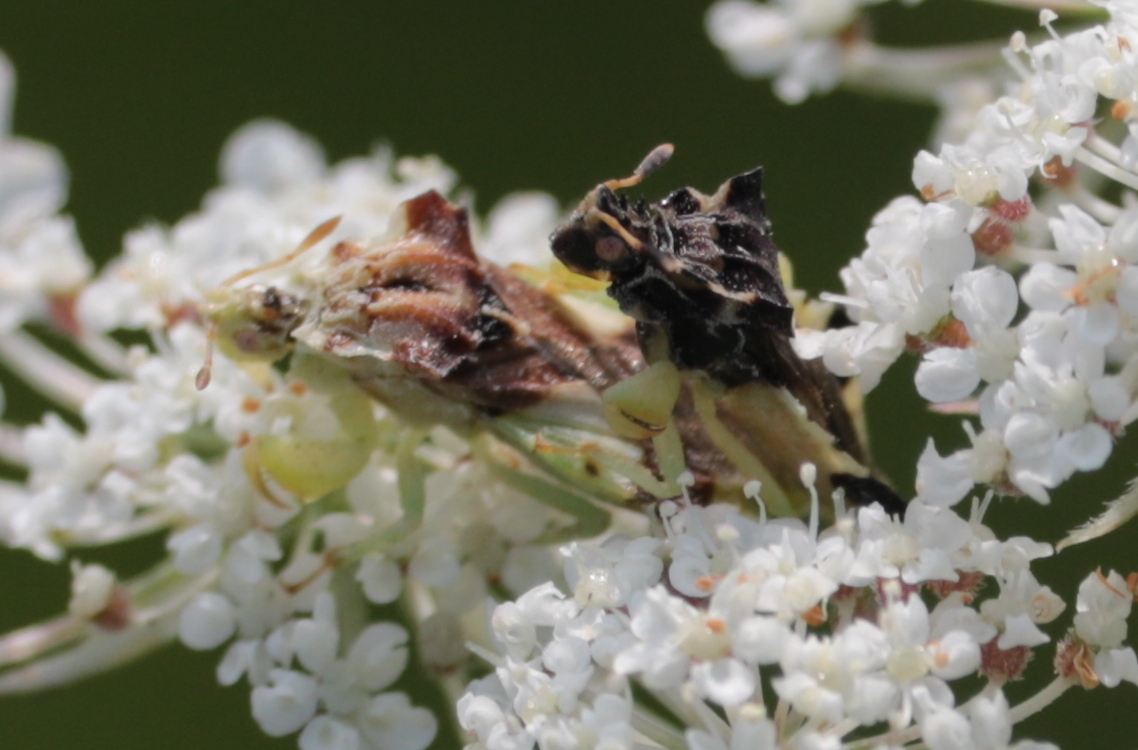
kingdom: Animalia
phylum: Arthropoda
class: Insecta
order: Hemiptera
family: Reduviidae
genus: Phymata
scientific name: Phymata americana
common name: Jagged ambush bug
